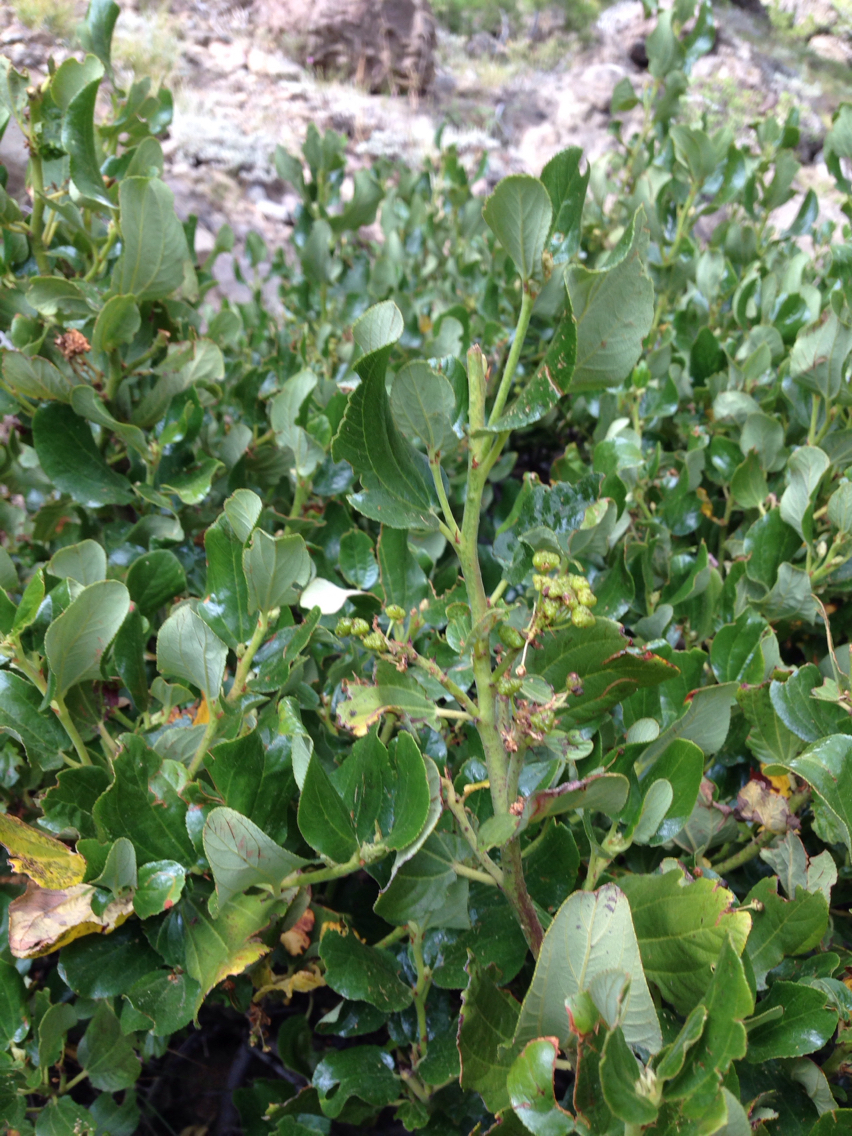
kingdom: Plantae
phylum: Tracheophyta
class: Magnoliopsida
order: Rosales
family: Rhamnaceae
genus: Ceanothus
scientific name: Ceanothus velutinus
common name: Snowbrush
